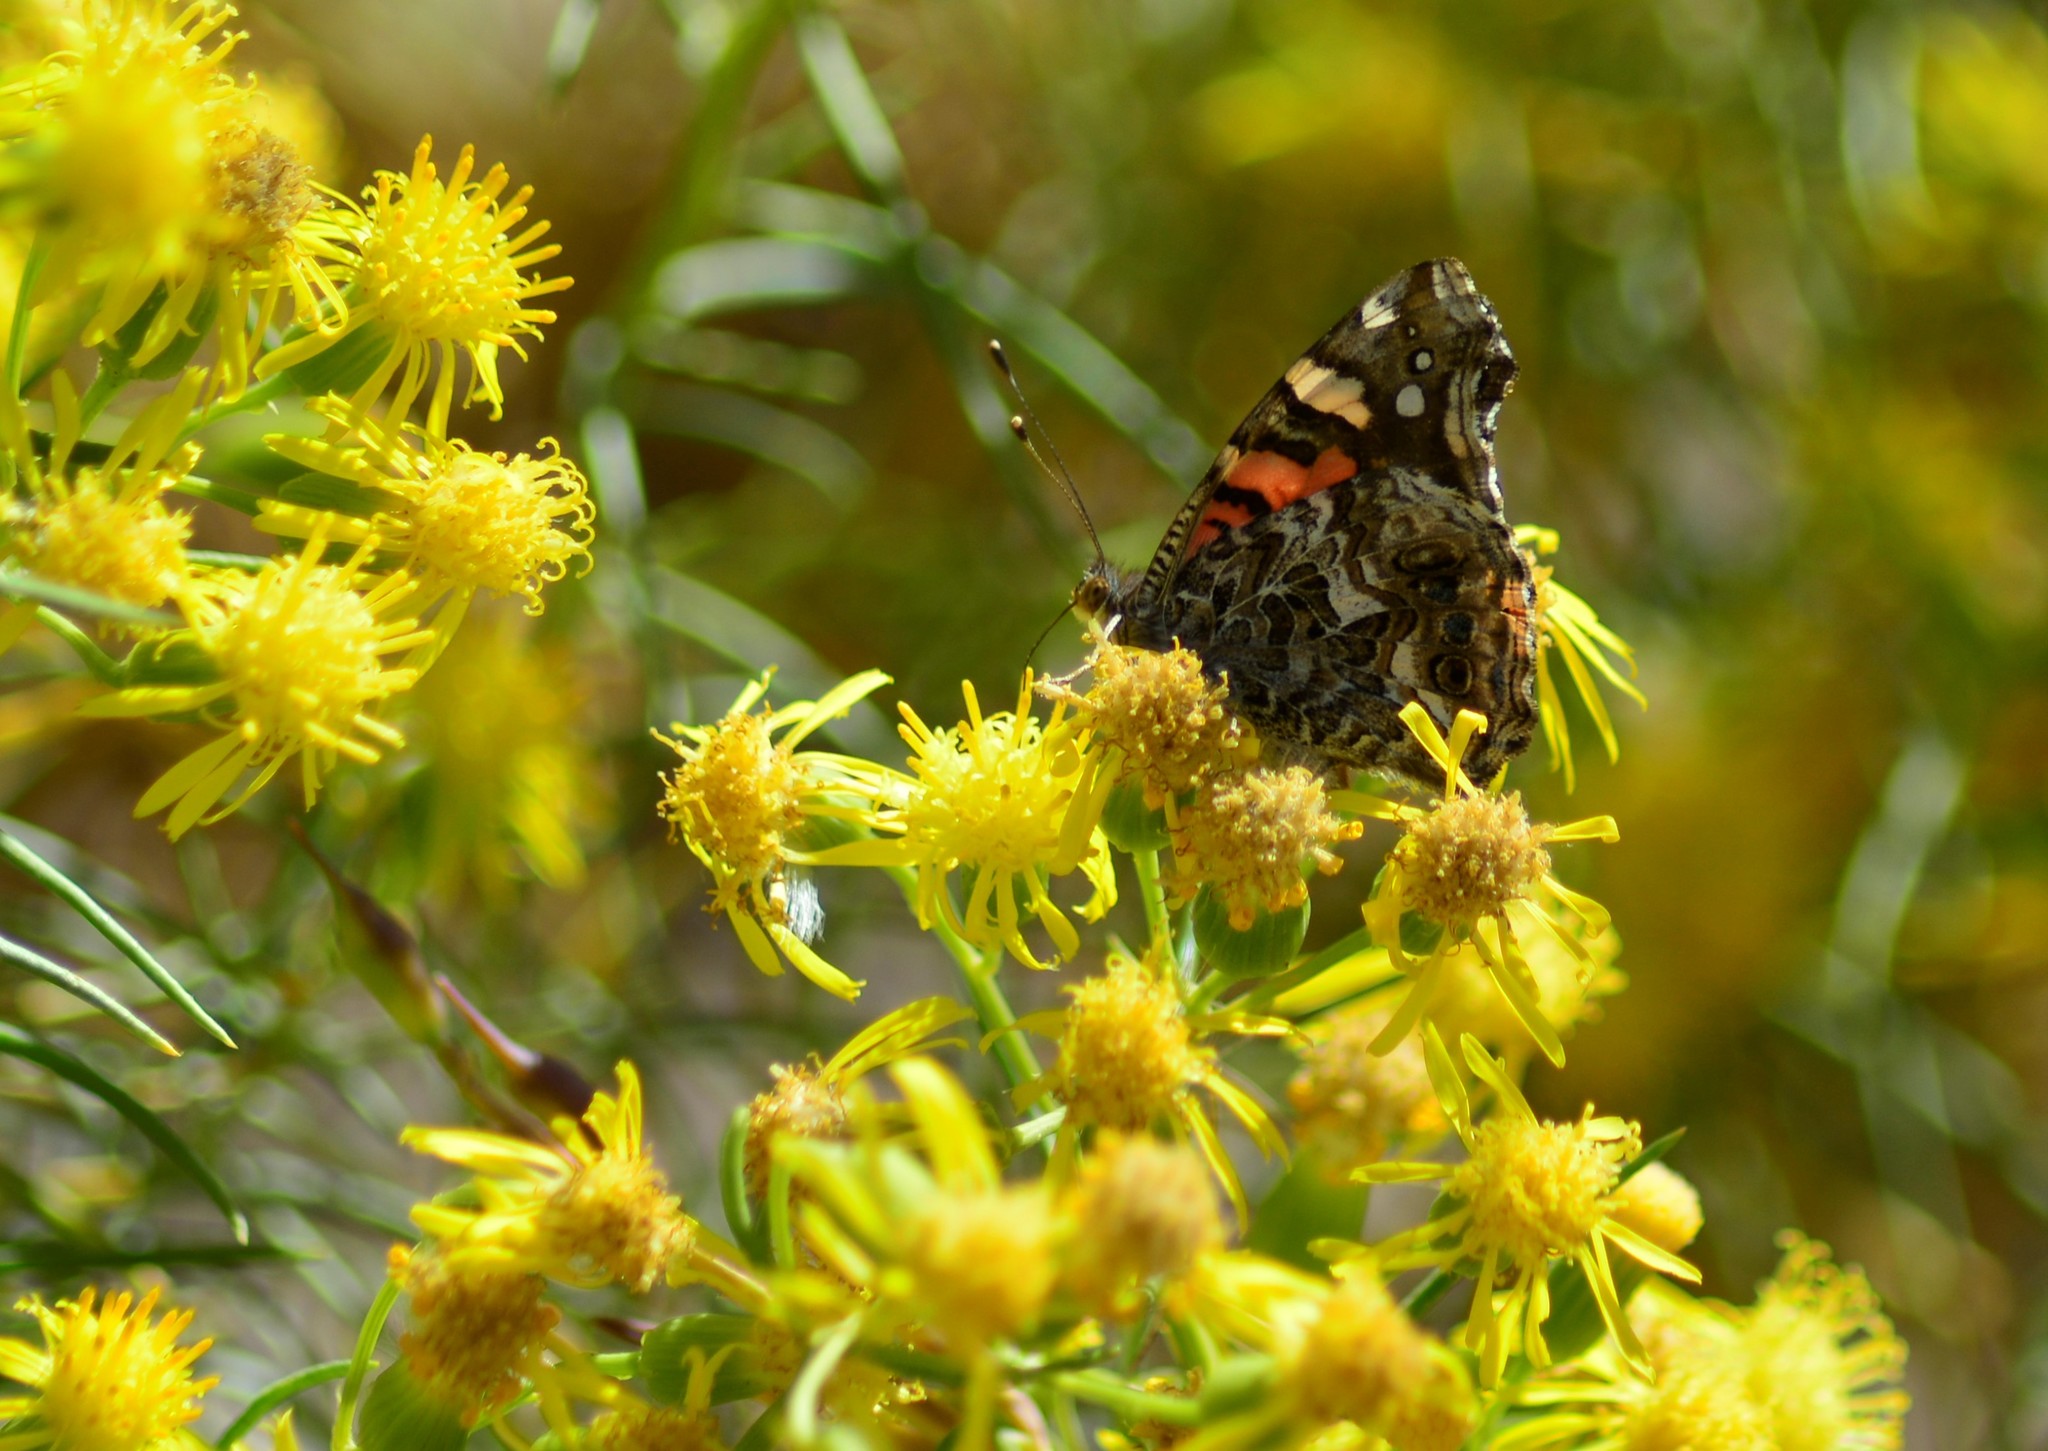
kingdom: Animalia
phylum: Arthropoda
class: Insecta
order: Lepidoptera
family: Nymphalidae
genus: Vanessa
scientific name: Vanessa carye
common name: Subtropical lady
